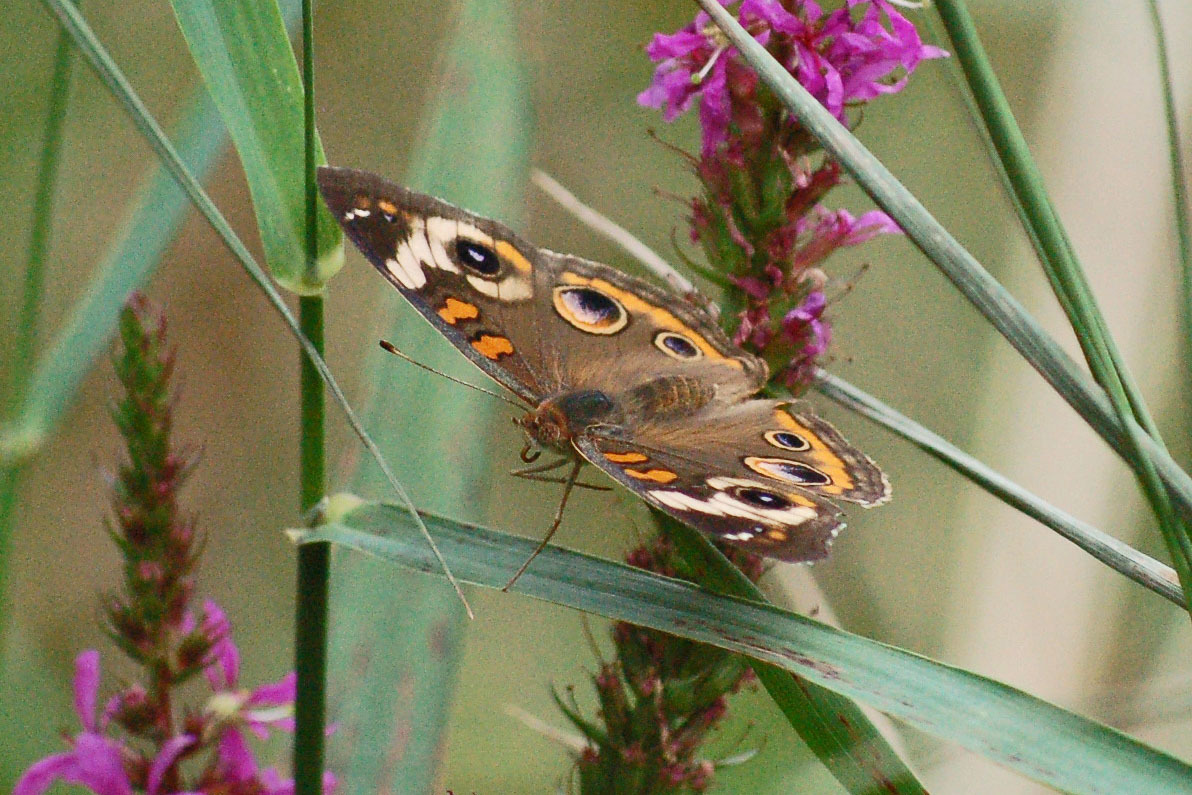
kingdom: Animalia
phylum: Arthropoda
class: Insecta
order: Lepidoptera
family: Nymphalidae
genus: Junonia
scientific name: Junonia coenia
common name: Common buckeye
